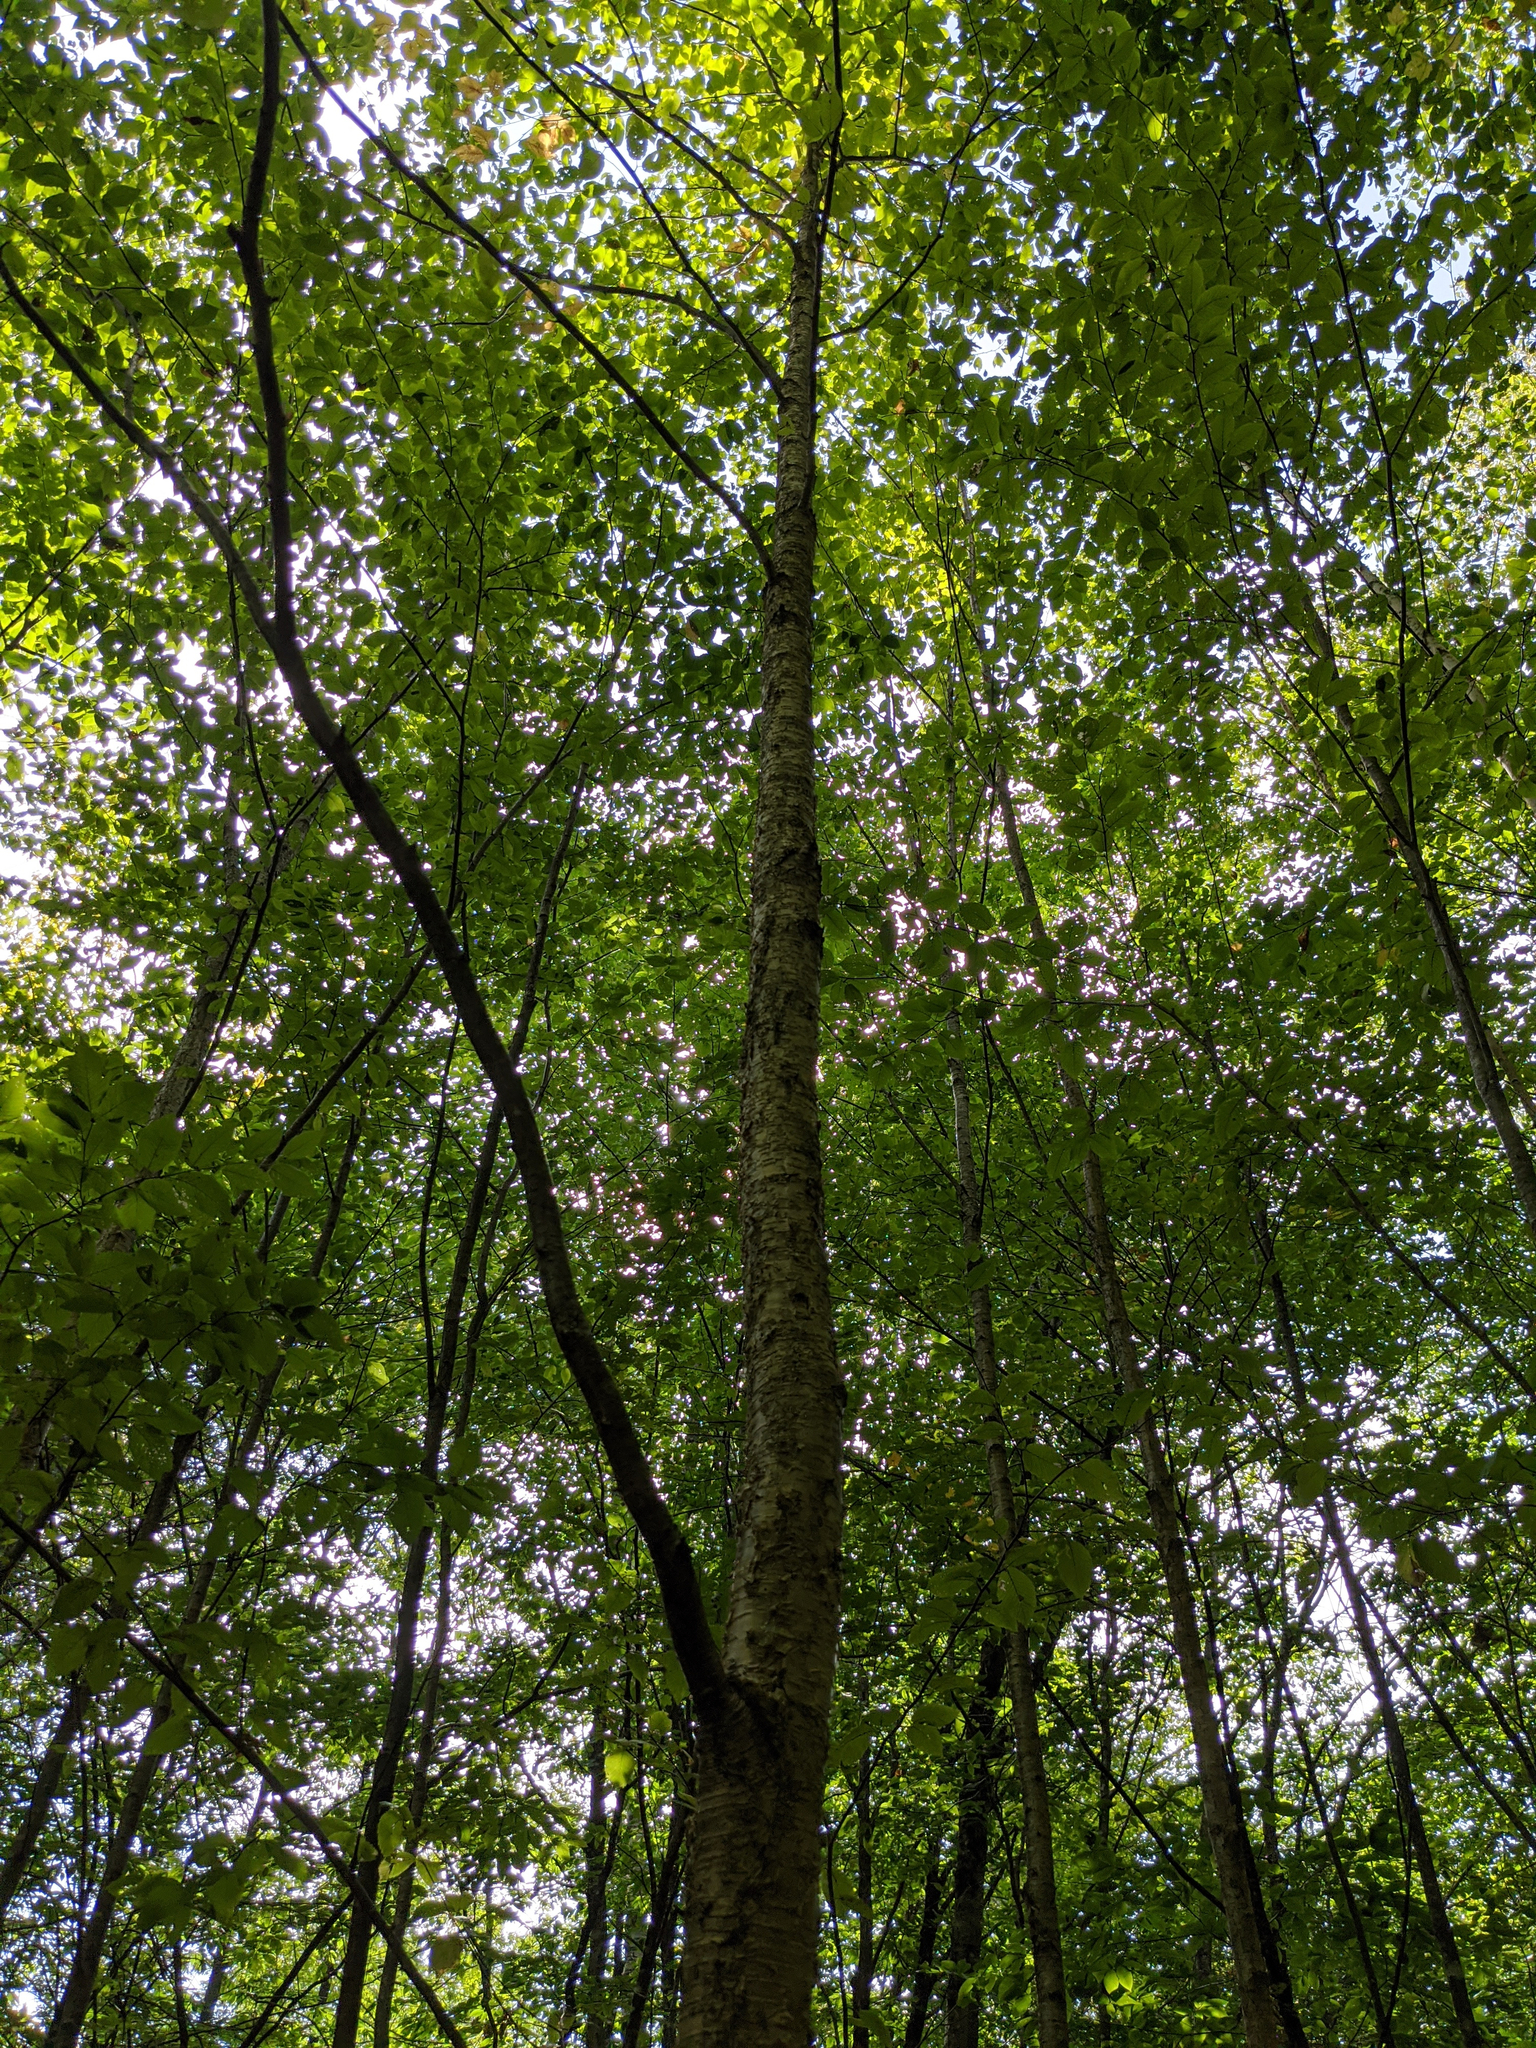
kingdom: Plantae
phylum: Tracheophyta
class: Magnoliopsida
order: Fagales
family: Betulaceae
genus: Betula
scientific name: Betula alleghaniensis
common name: Yellow birch
